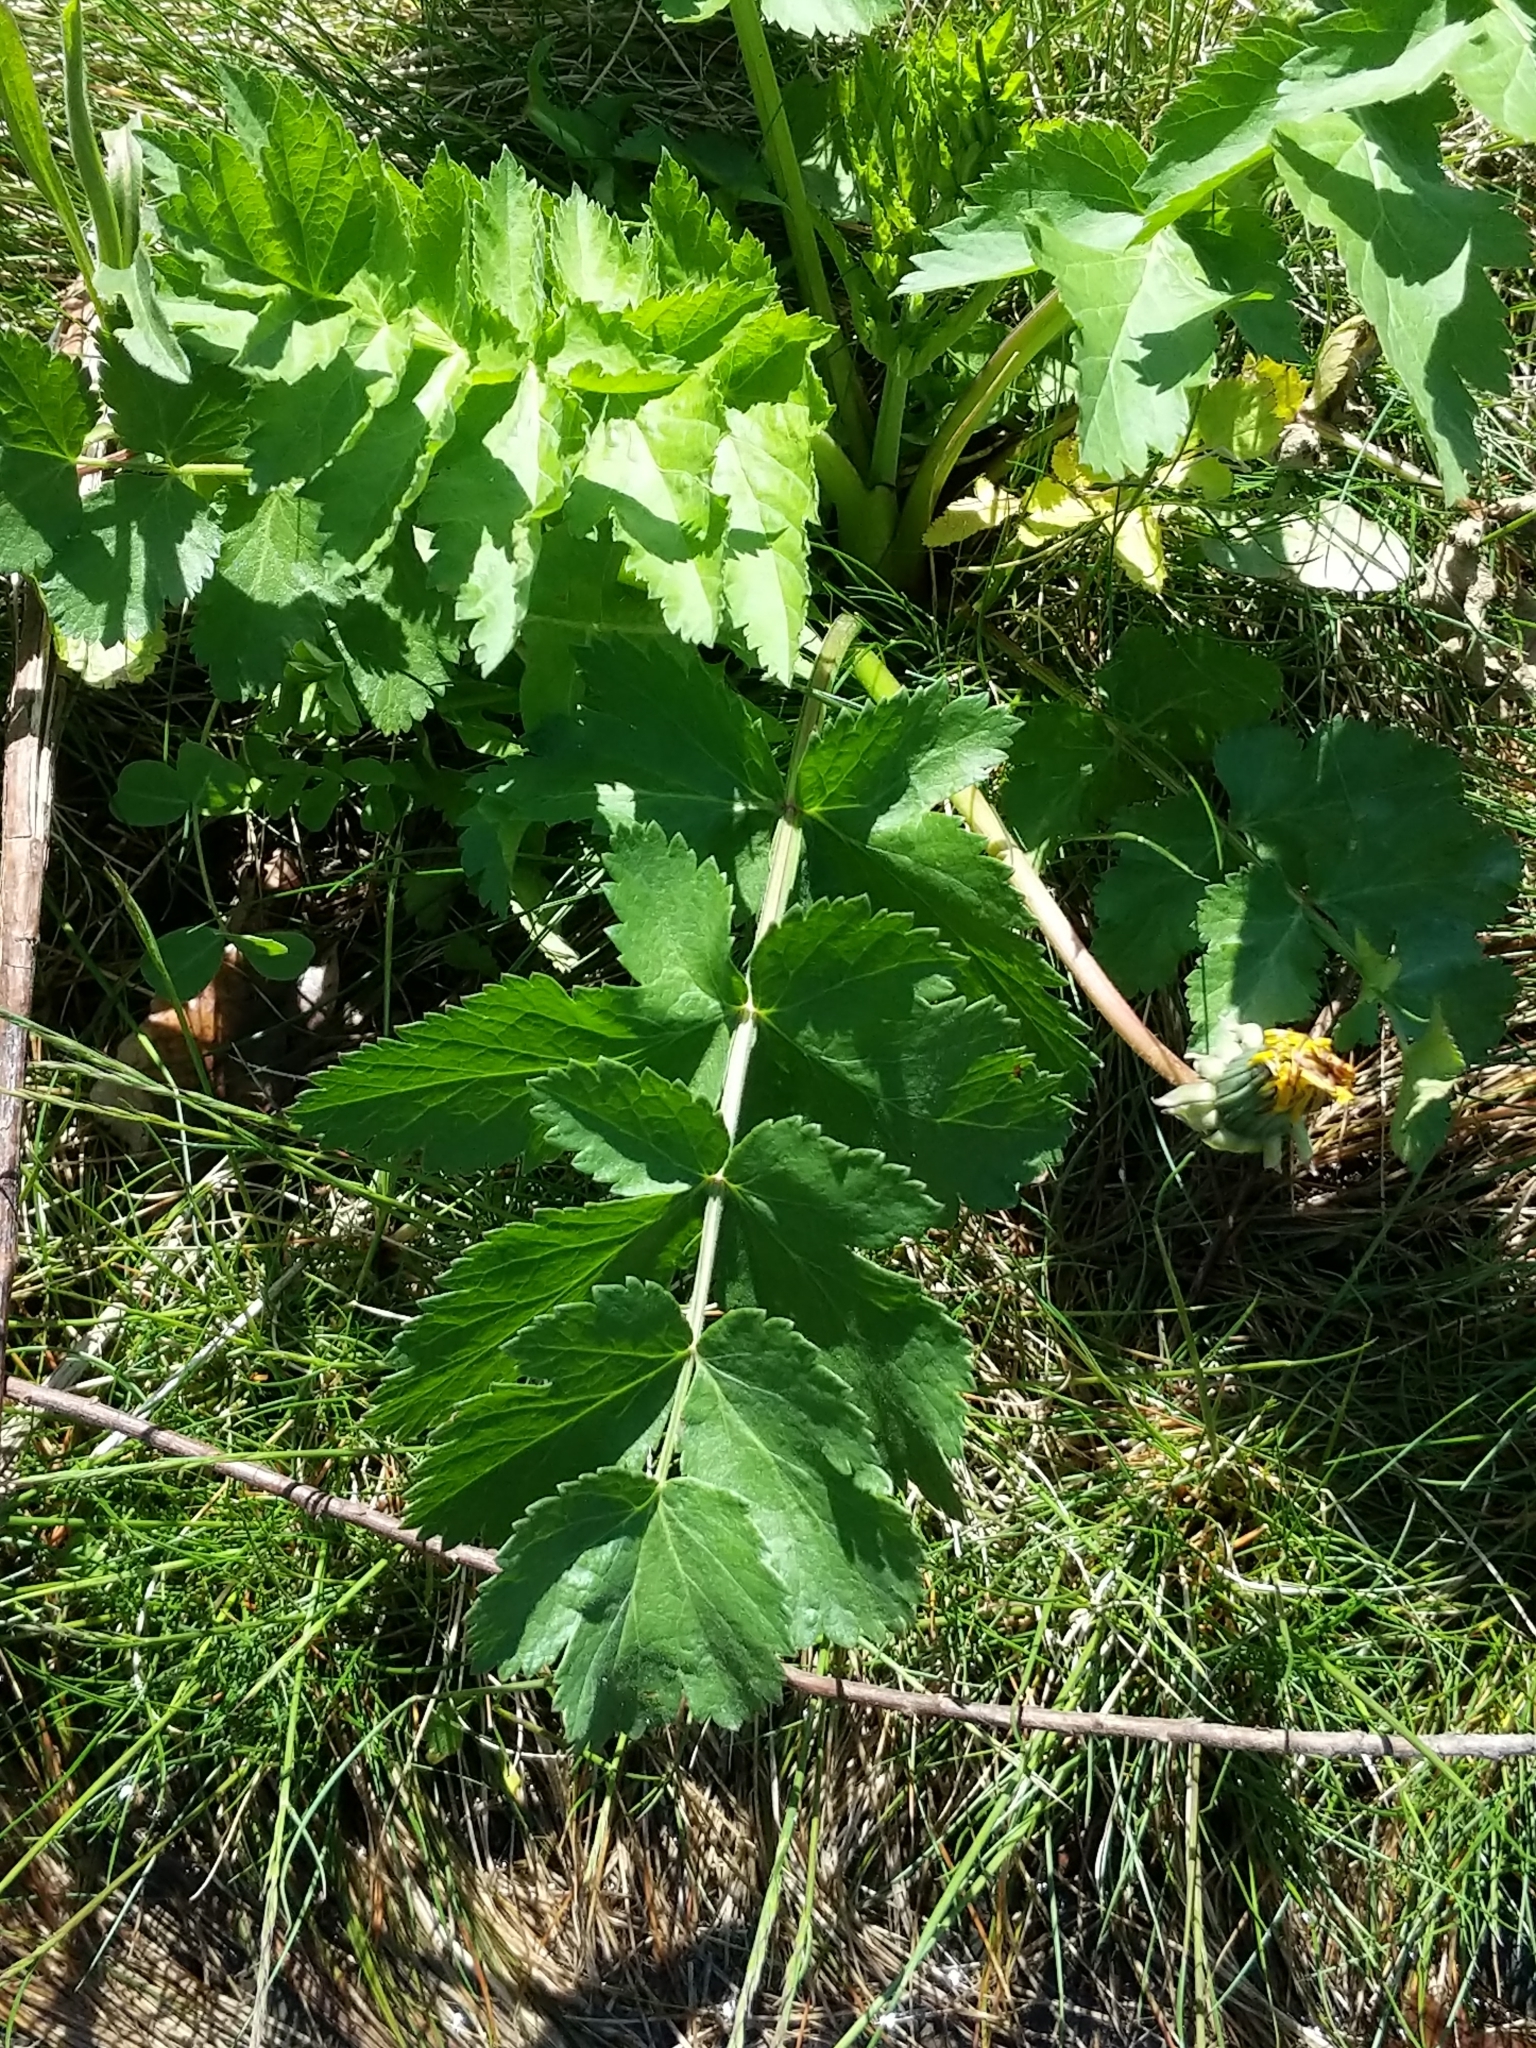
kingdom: Plantae
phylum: Tracheophyta
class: Magnoliopsida
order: Apiales
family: Apiaceae
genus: Pastinaca
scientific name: Pastinaca sativa
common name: Wild parsnip
